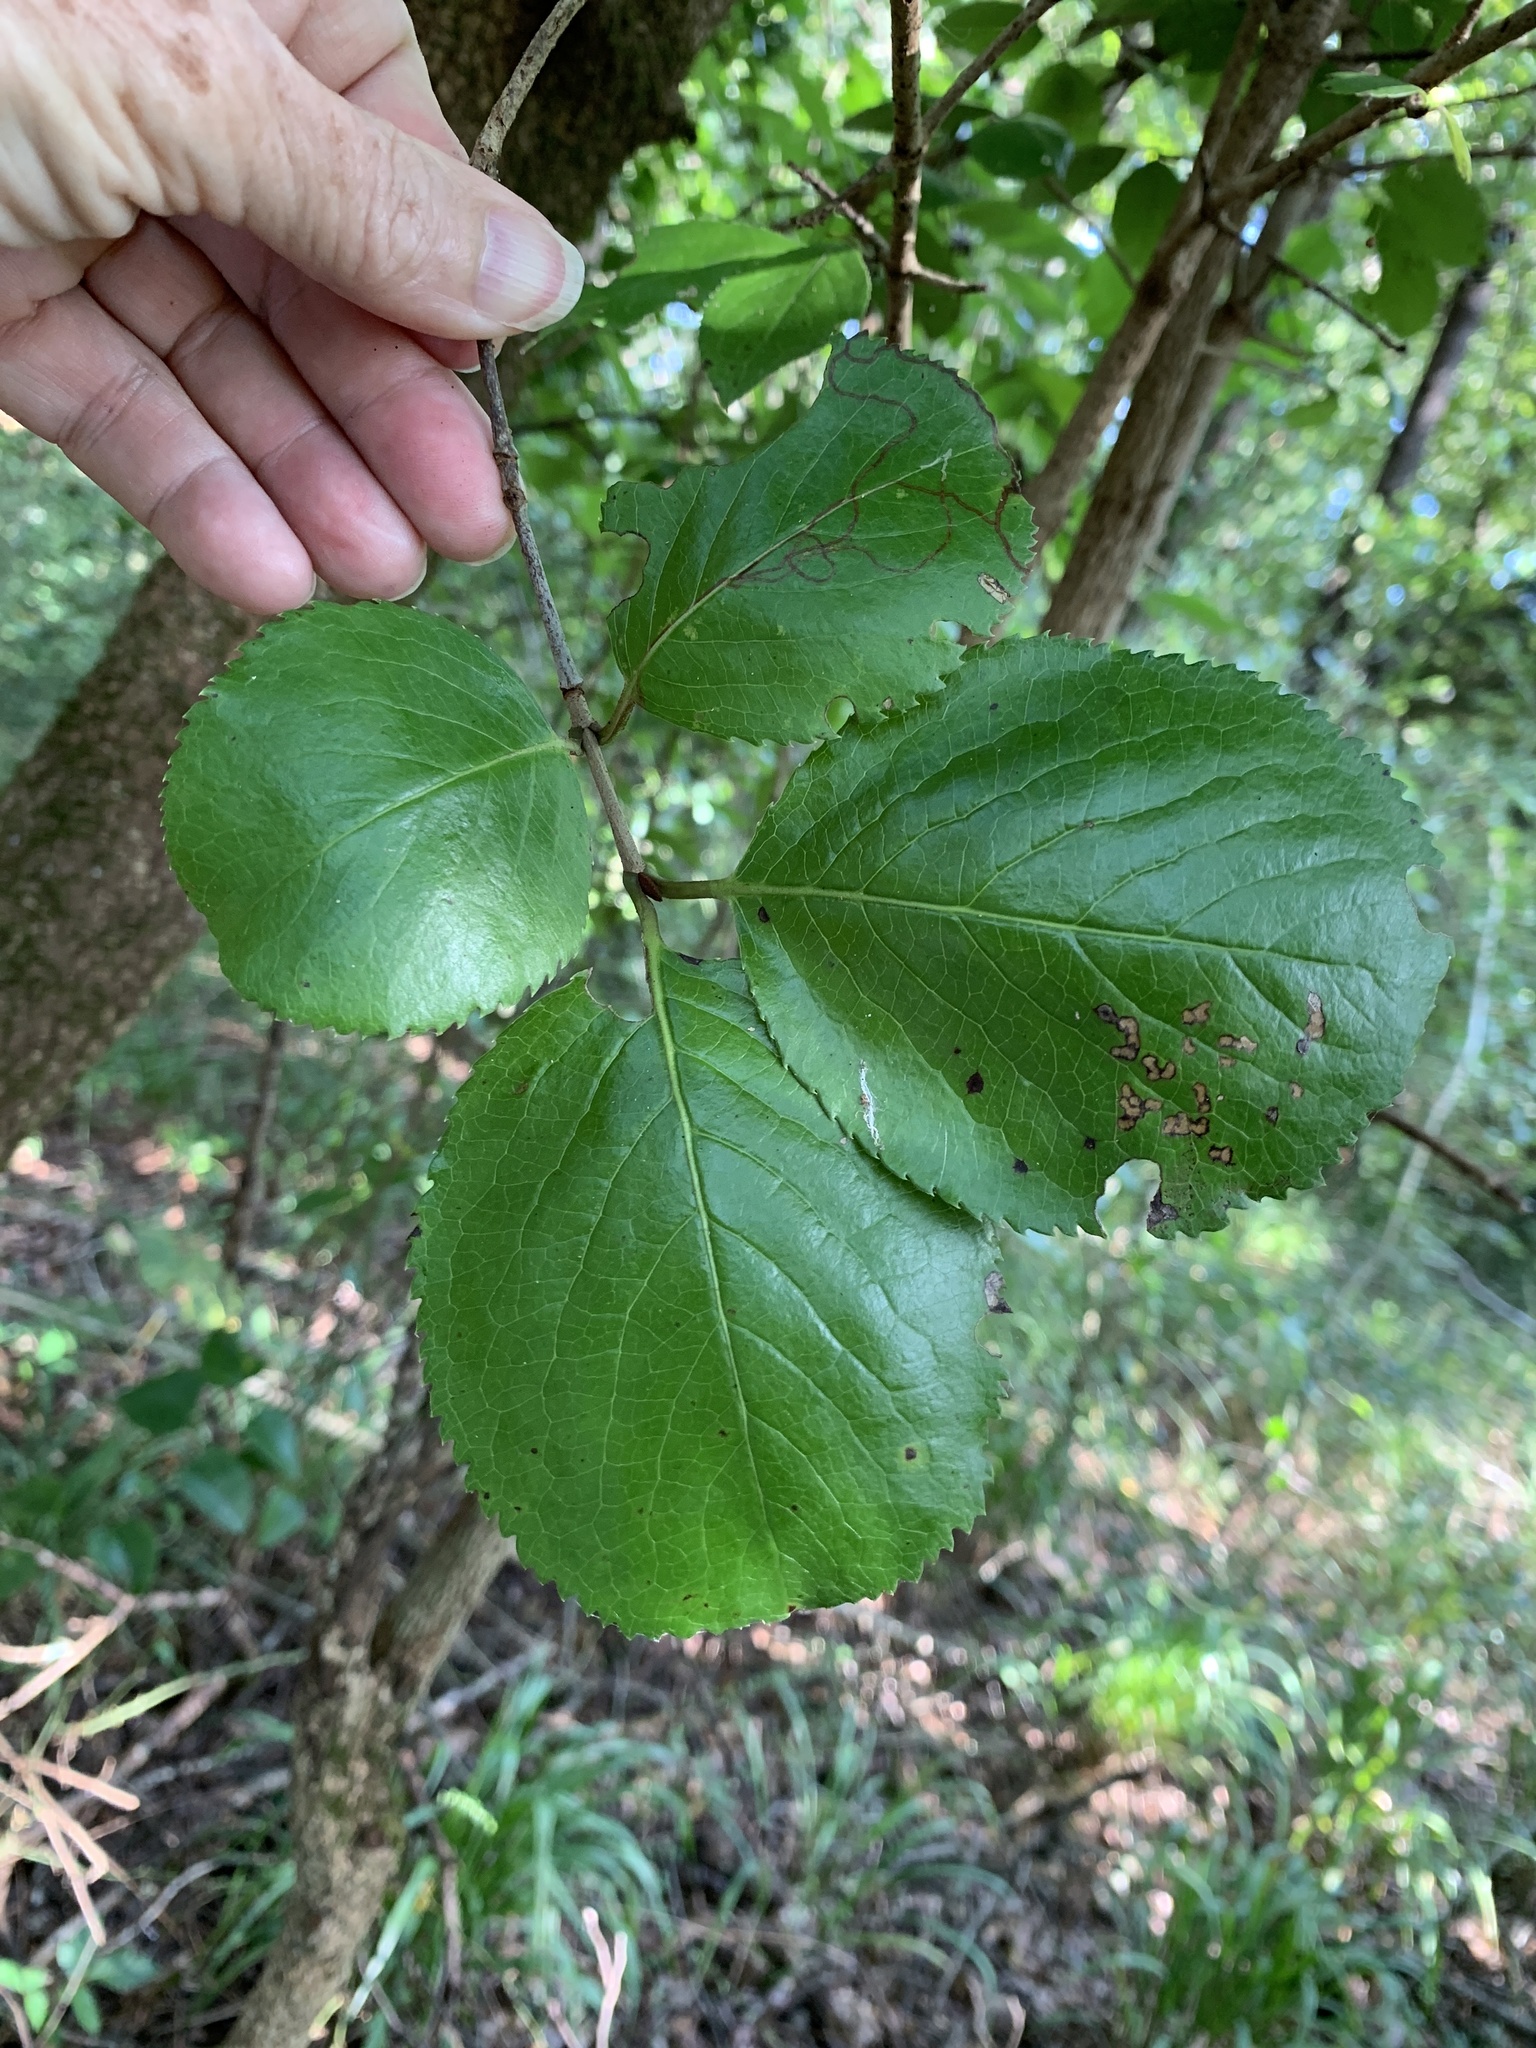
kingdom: Plantae
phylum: Tracheophyta
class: Magnoliopsida
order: Dipsacales
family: Viburnaceae
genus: Viburnum
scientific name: Viburnum rufidulum
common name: Blue haw
